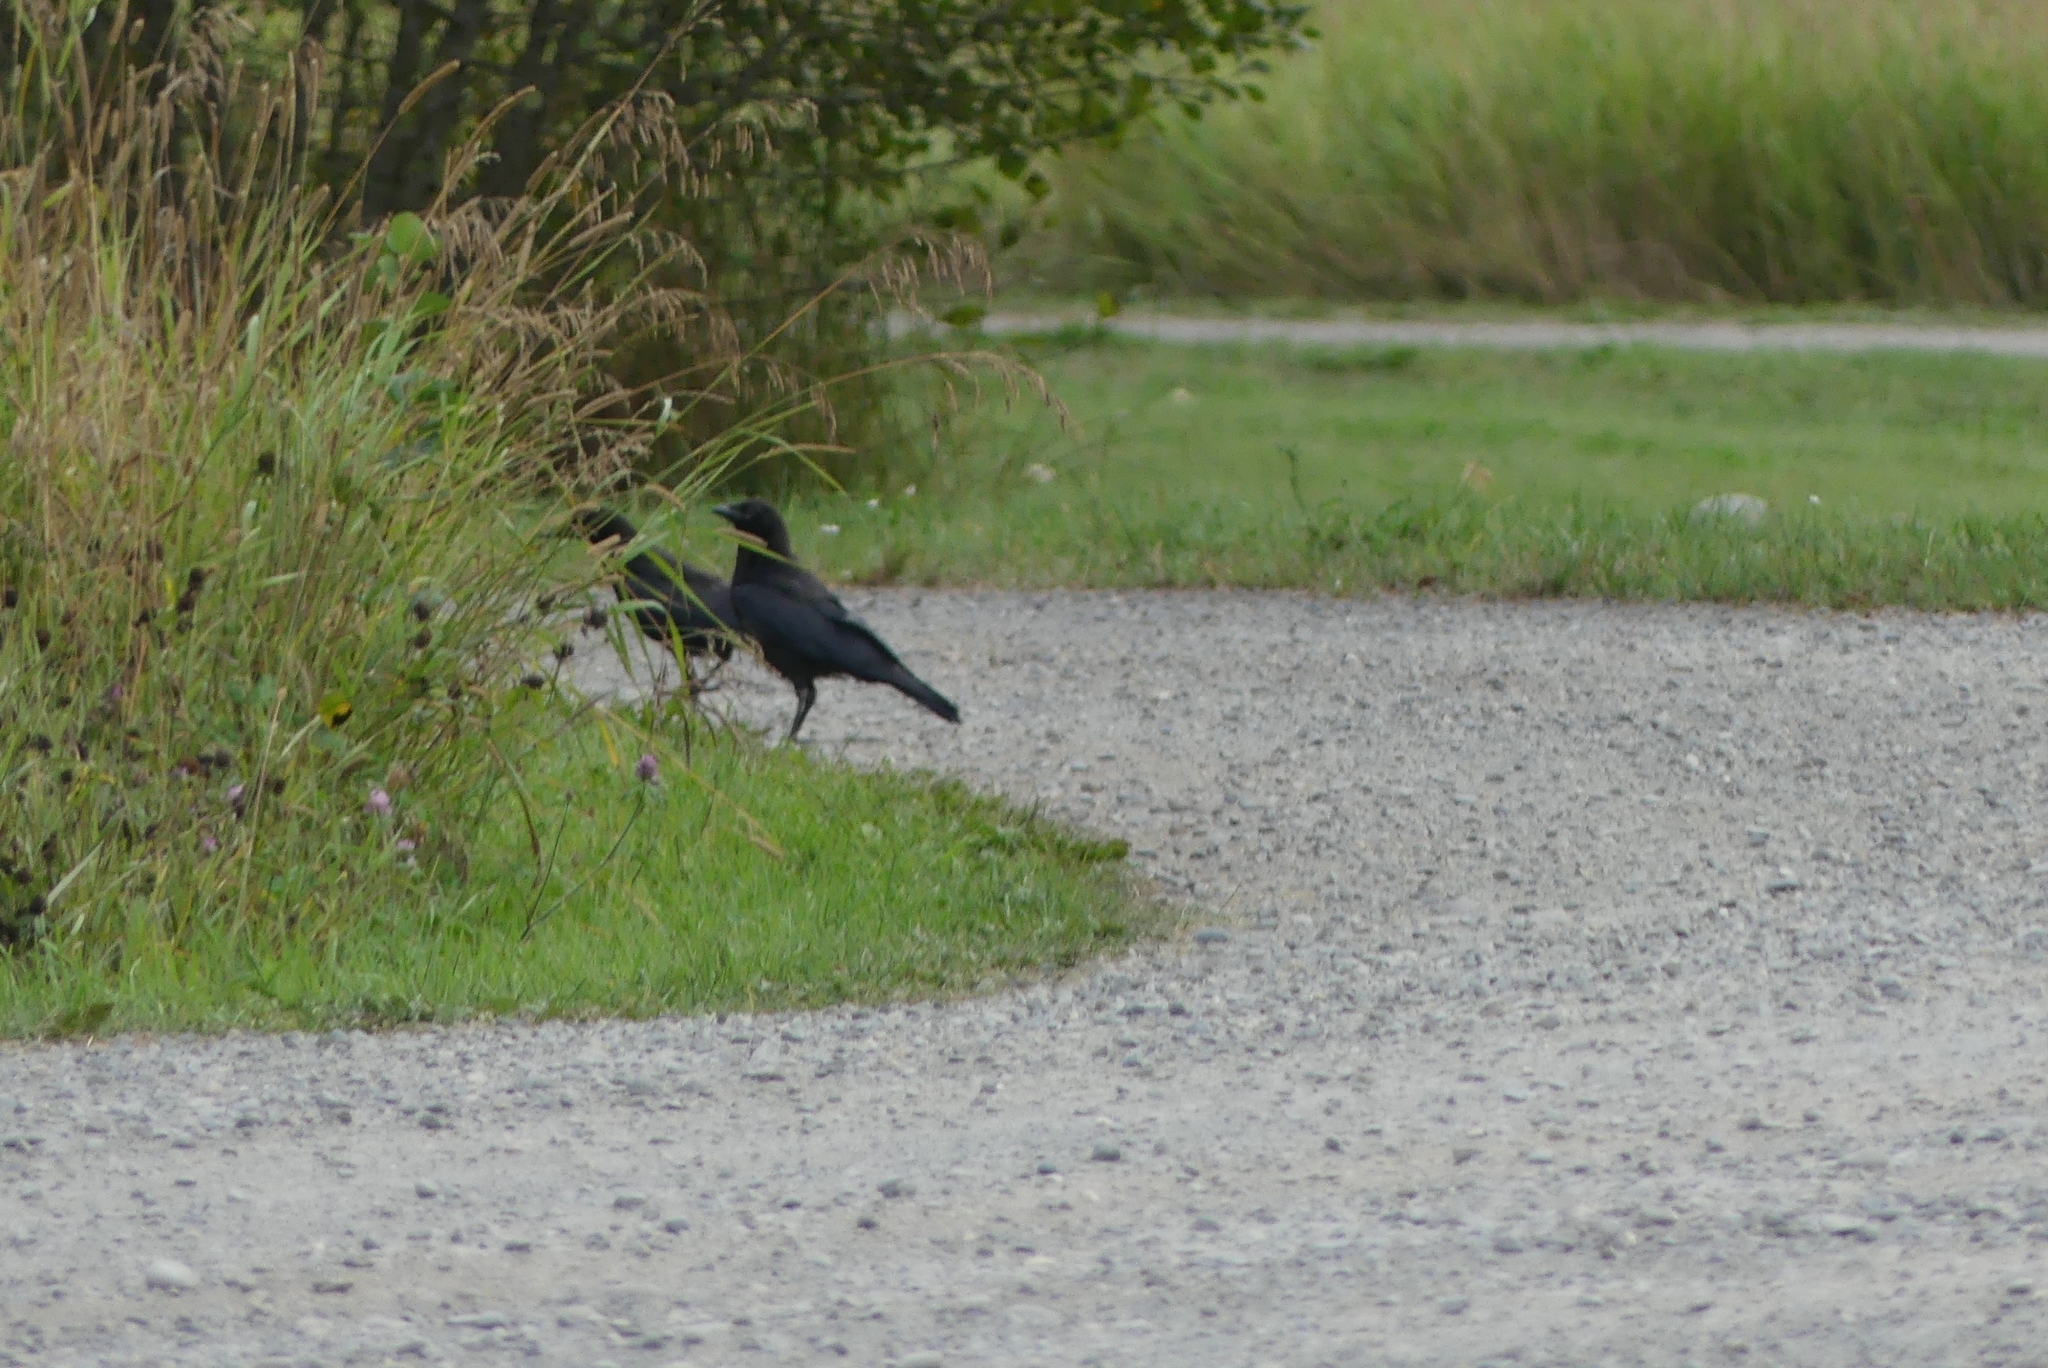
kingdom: Animalia
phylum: Chordata
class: Aves
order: Passeriformes
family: Corvidae
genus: Corvus
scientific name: Corvus brachyrhynchos
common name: American crow
